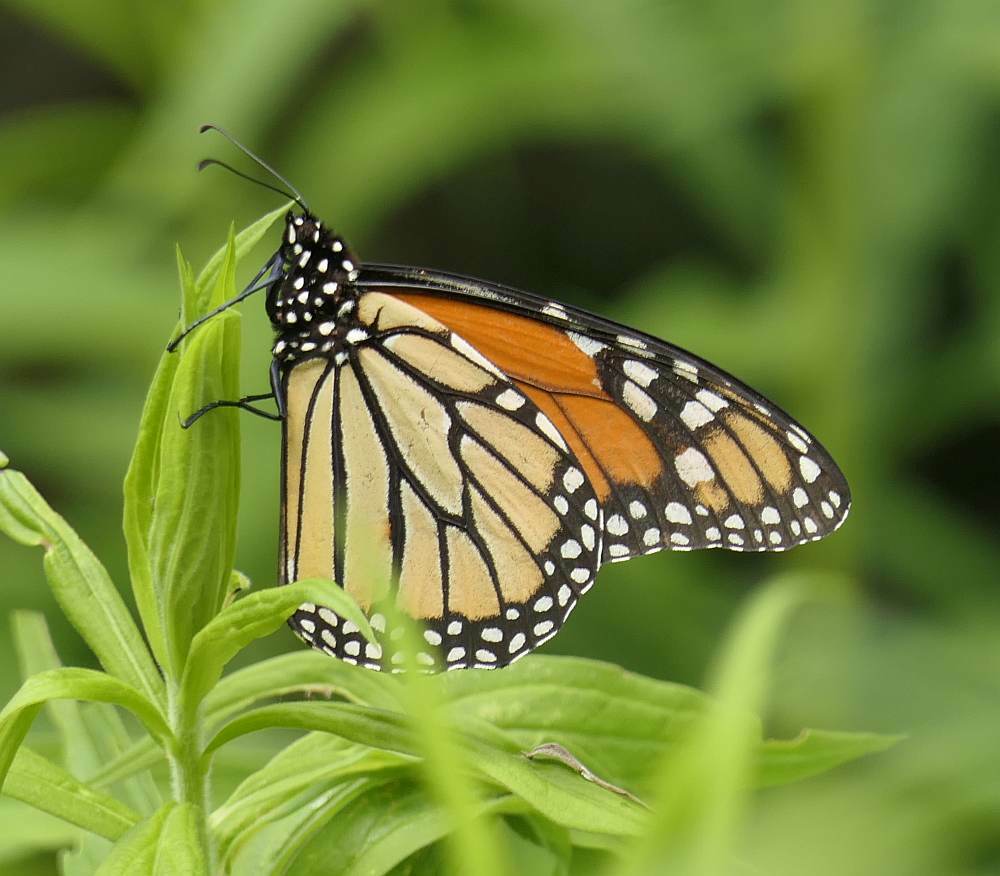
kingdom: Animalia
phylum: Arthropoda
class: Insecta
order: Lepidoptera
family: Nymphalidae
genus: Danaus
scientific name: Danaus plexippus
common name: Monarch
